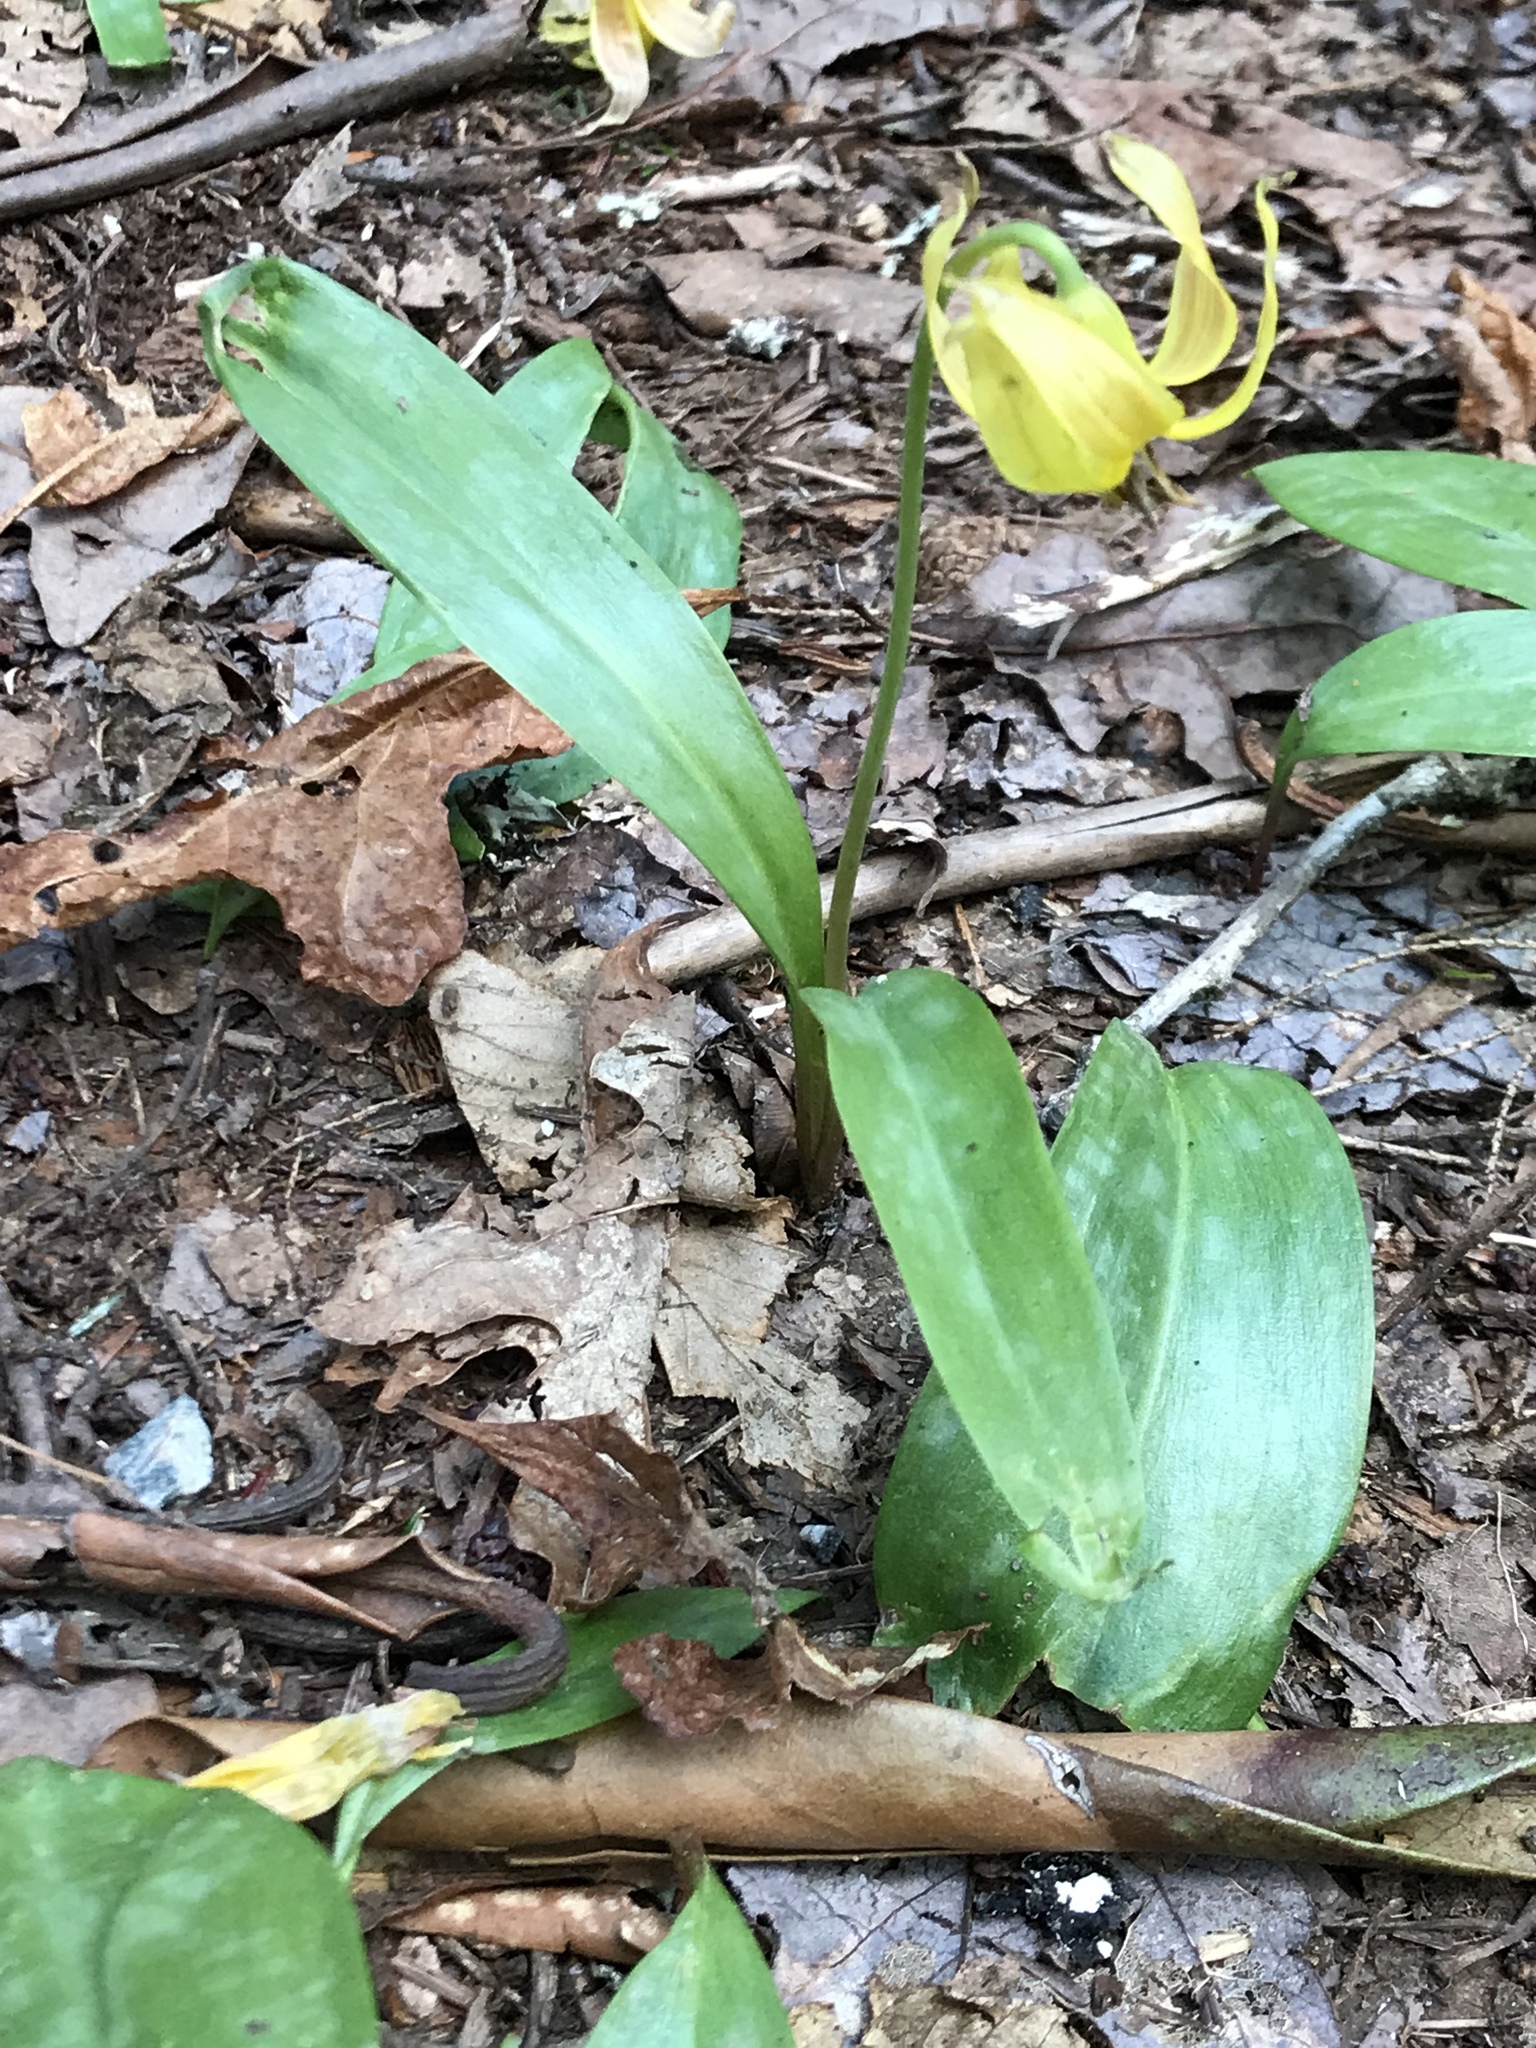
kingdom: Plantae
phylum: Tracheophyta
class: Liliopsida
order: Liliales
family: Liliaceae
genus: Erythronium
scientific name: Erythronium umbilicatum
